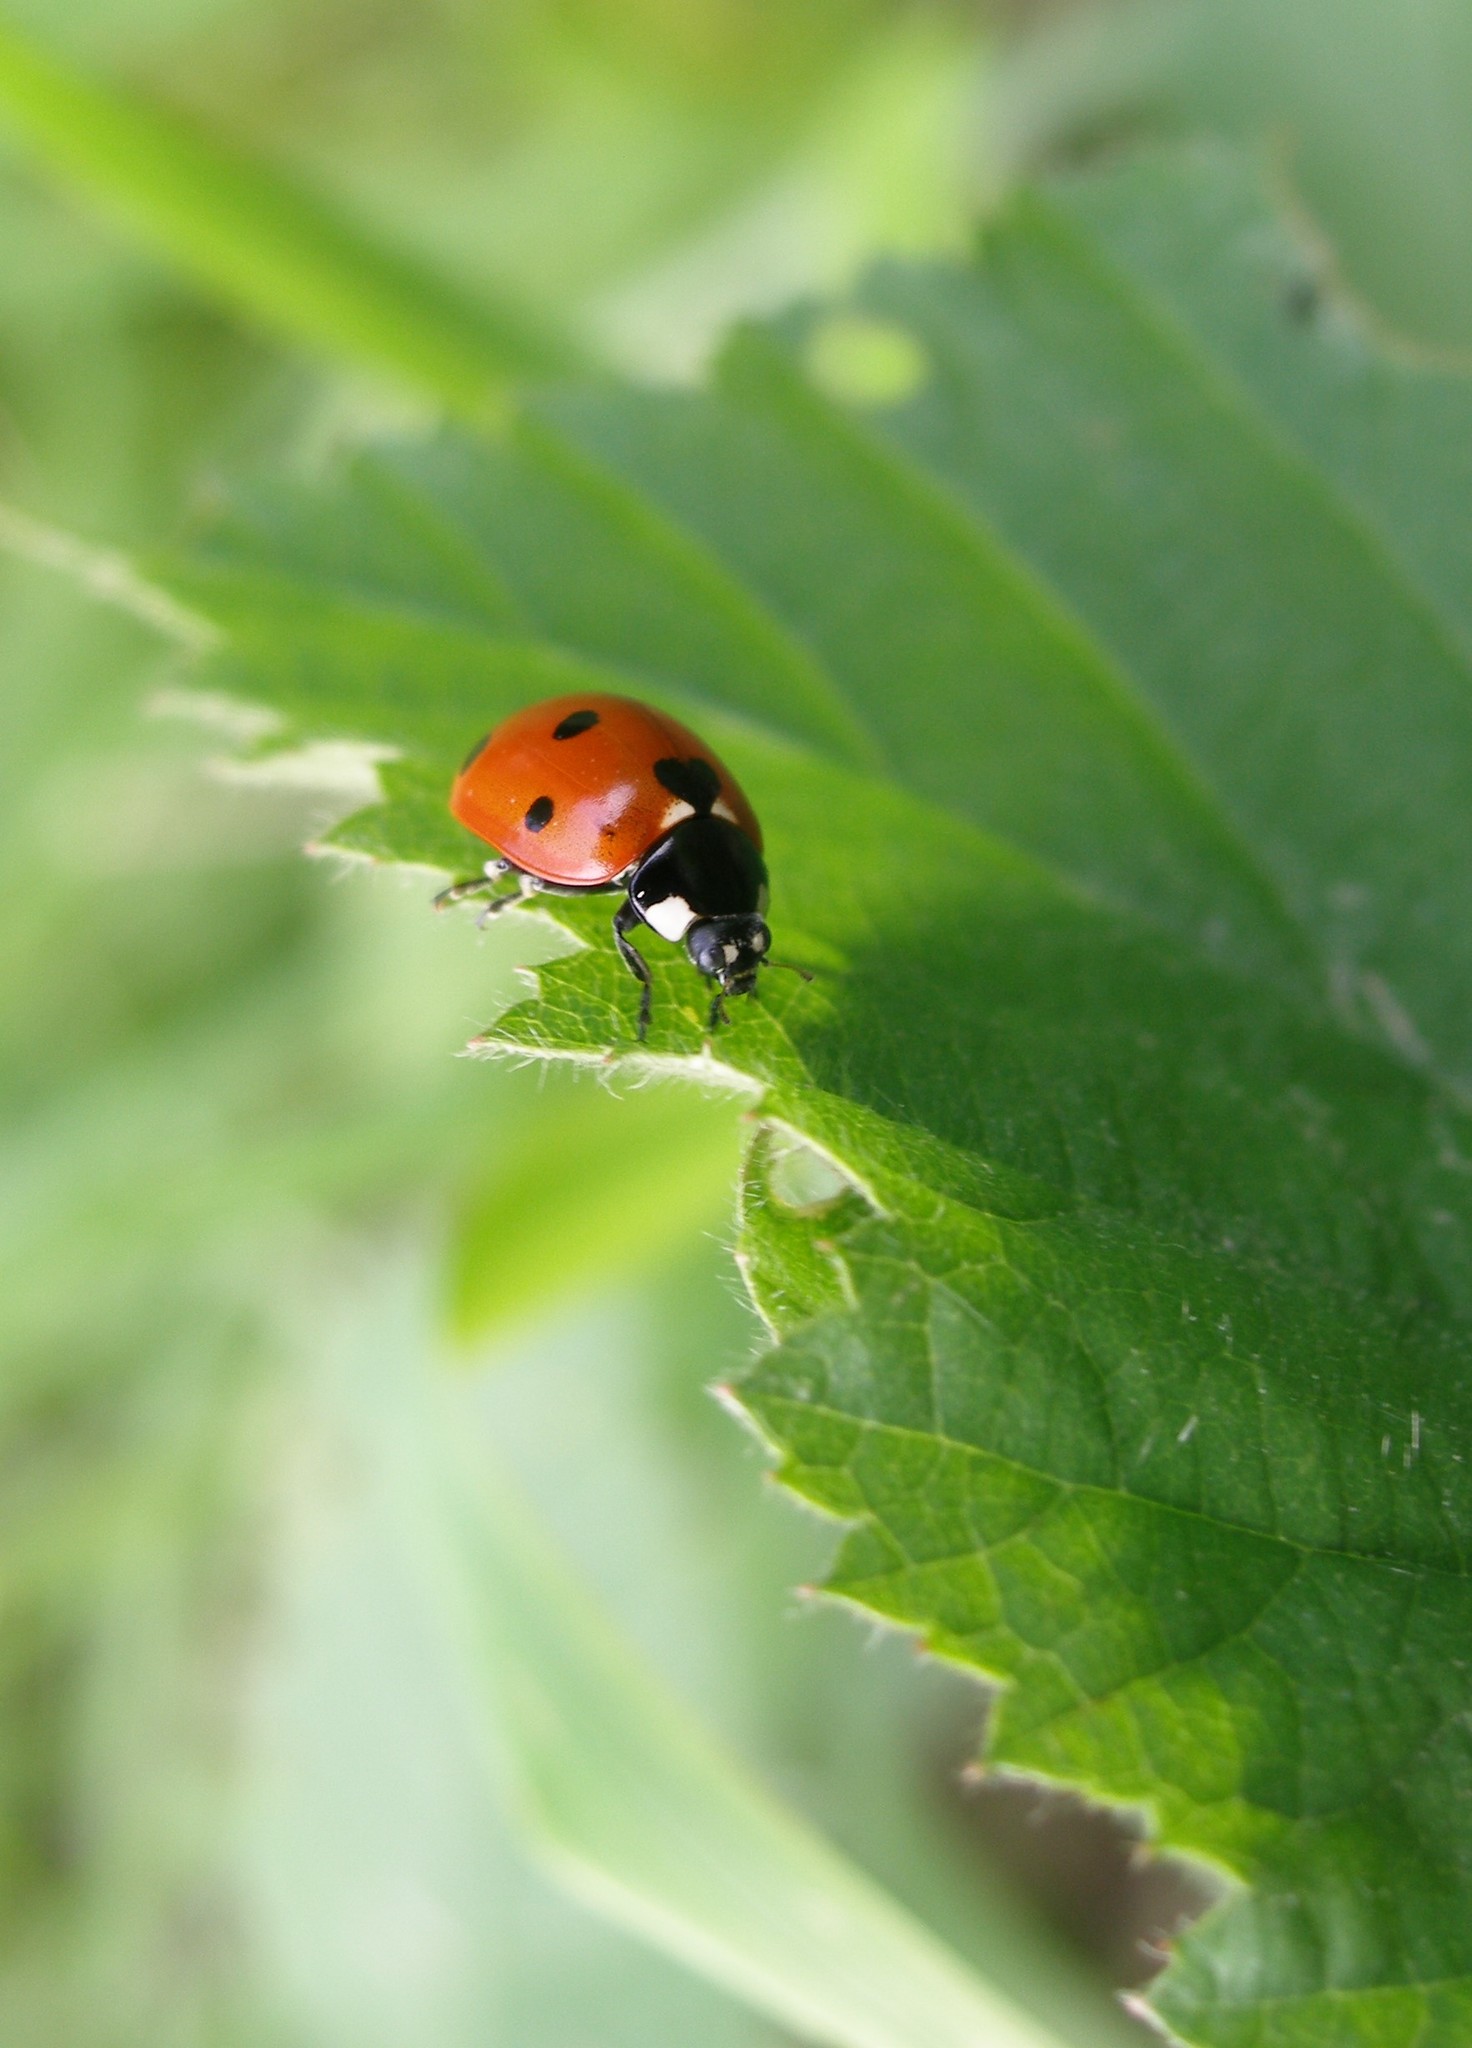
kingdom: Animalia
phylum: Arthropoda
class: Insecta
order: Coleoptera
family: Coccinellidae
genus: Coccinella
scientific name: Coccinella septempunctata
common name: Sevenspotted lady beetle
